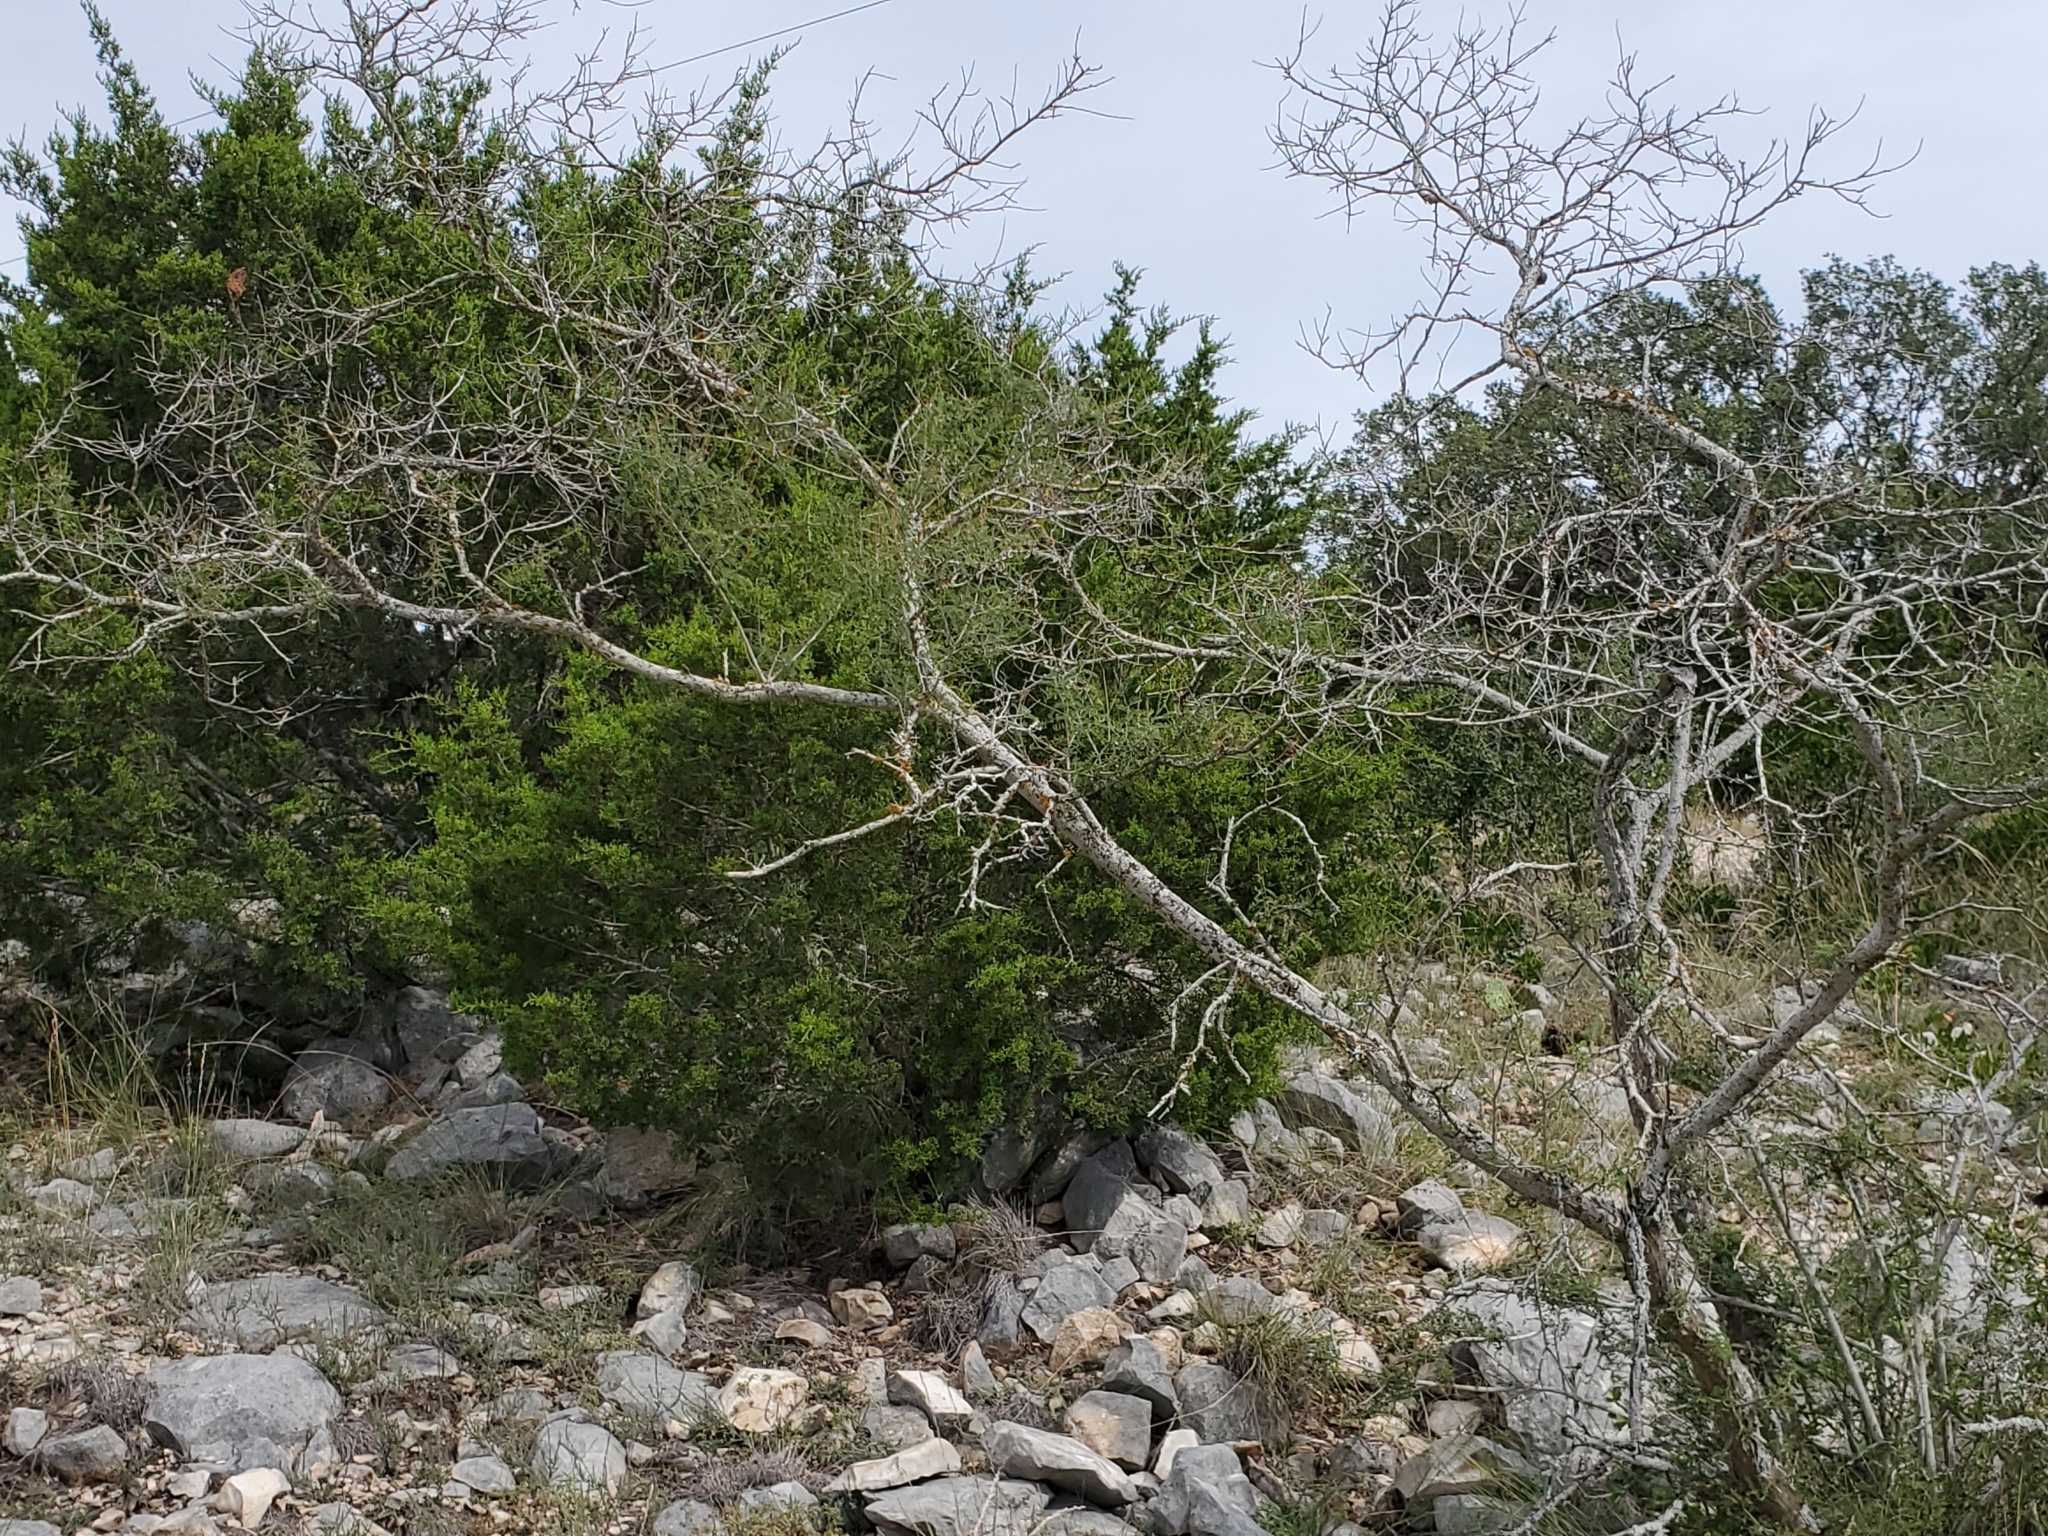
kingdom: Plantae
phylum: Tracheophyta
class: Magnoliopsida
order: Fabales
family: Fabaceae
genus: Eysenhardtia
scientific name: Eysenhardtia texana
